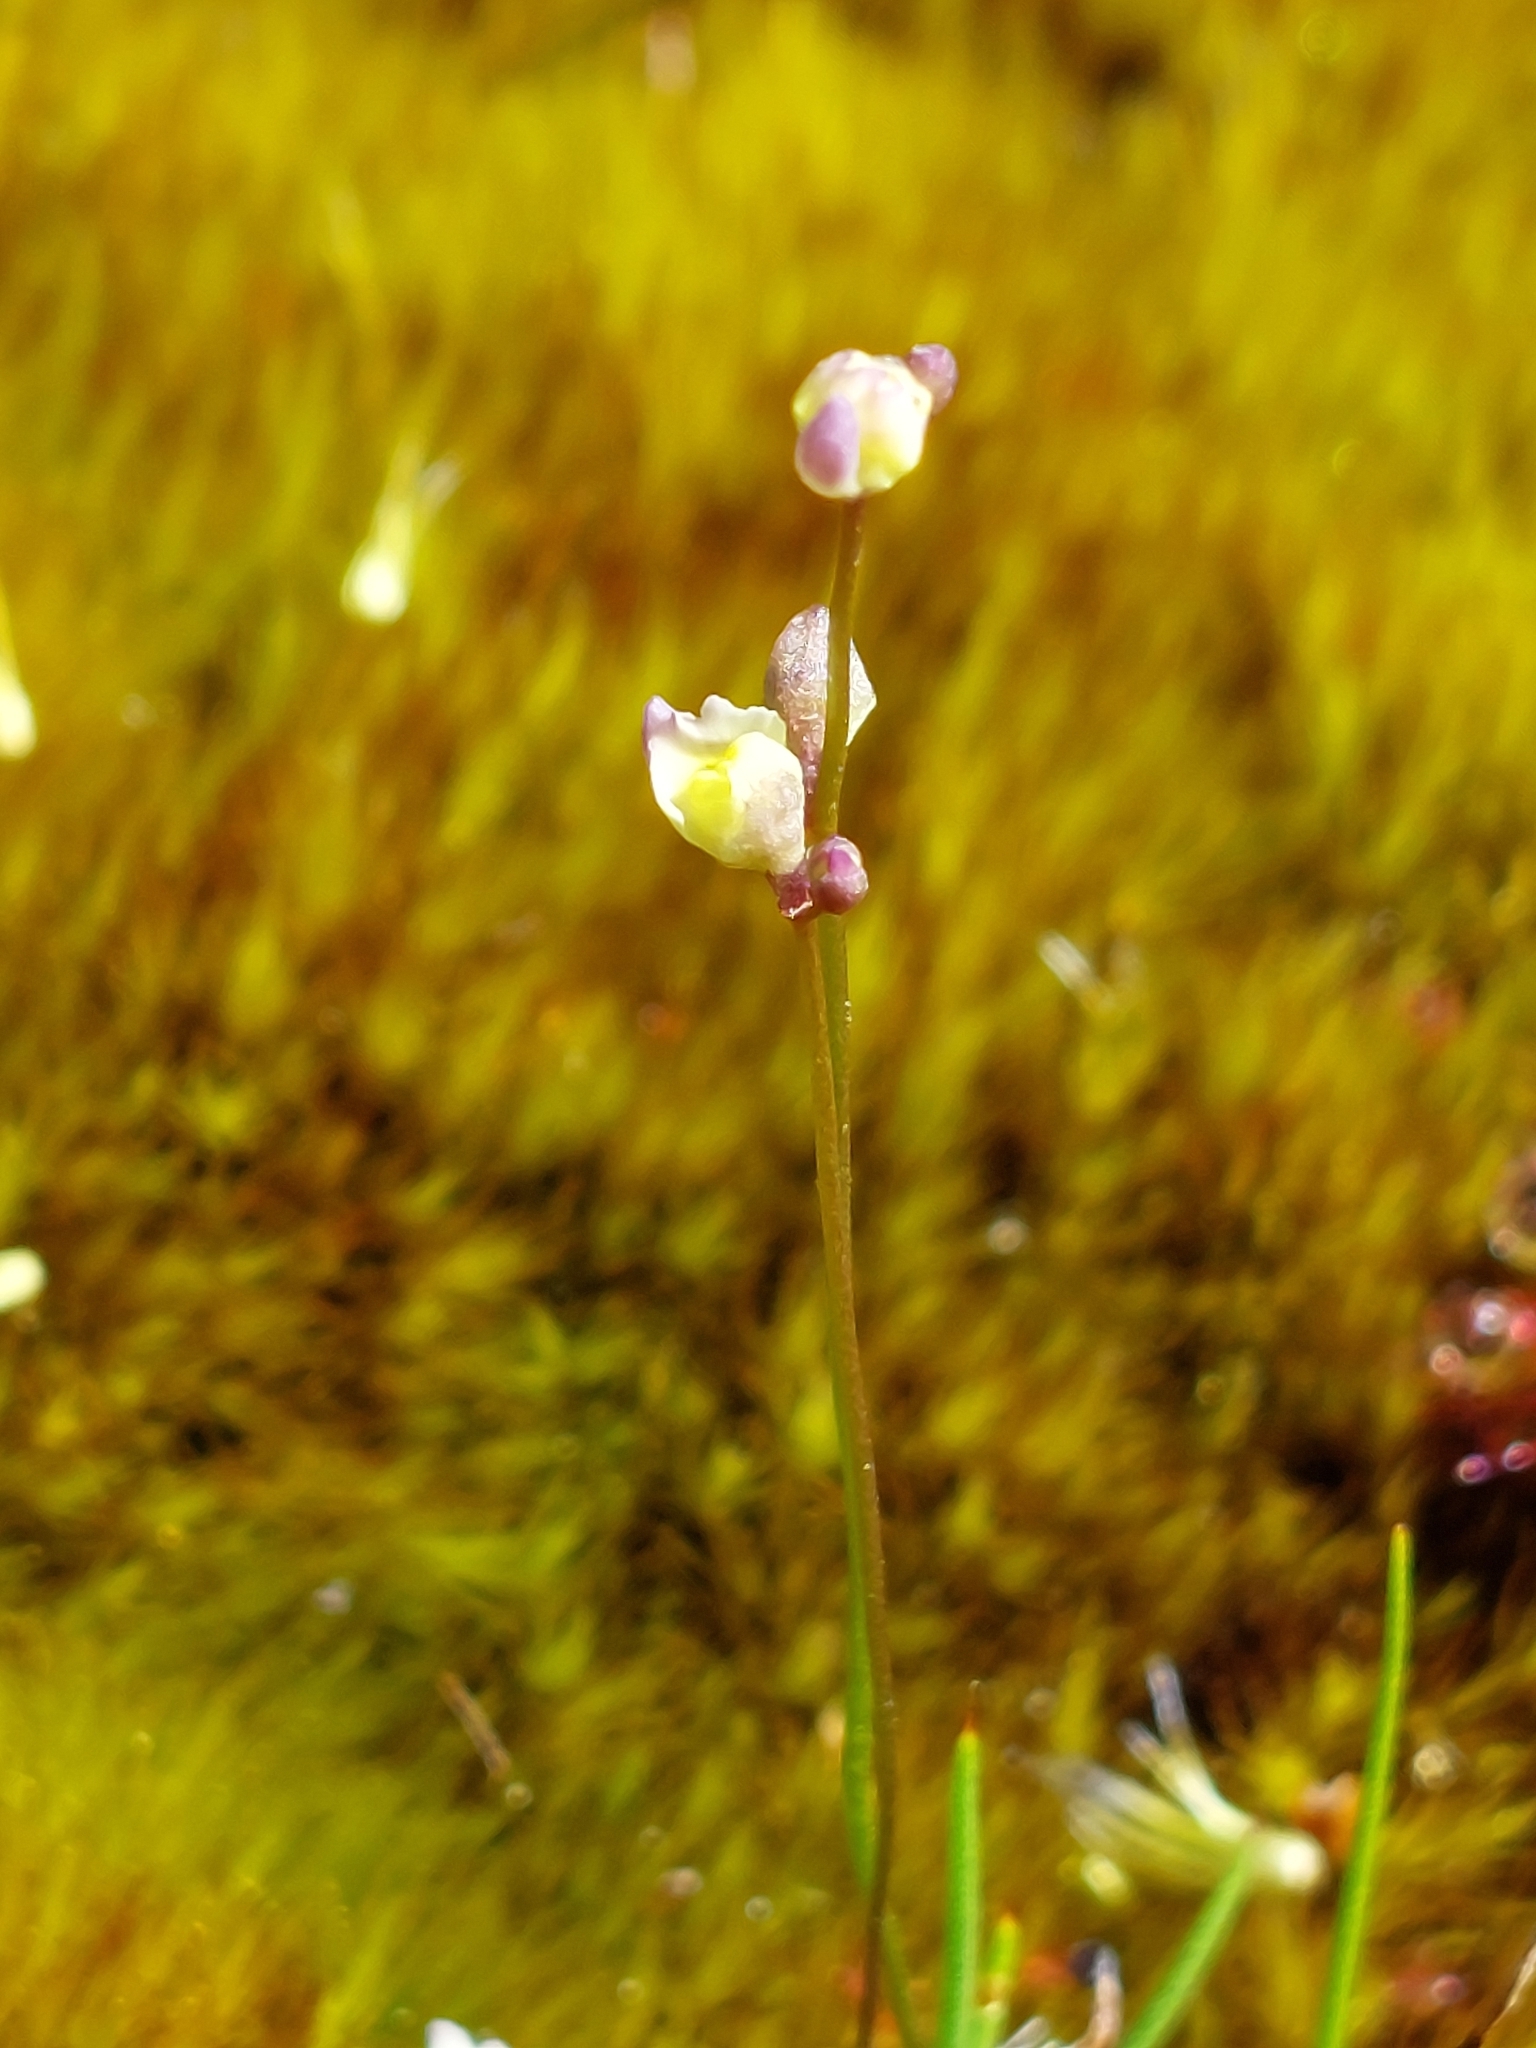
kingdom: Plantae
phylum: Tracheophyta
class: Magnoliopsida
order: Lamiales
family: Lentibulariaceae
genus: Utricularia
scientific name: Utricularia bisquamata
